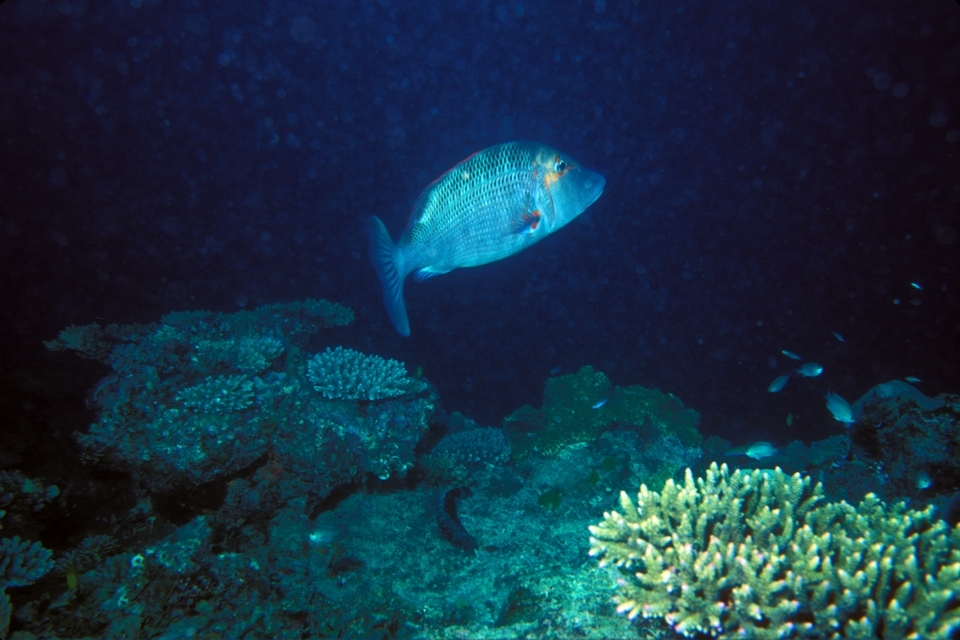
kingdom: Animalia
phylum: Chordata
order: Perciformes
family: Lethrinidae
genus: Lethrinus
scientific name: Lethrinus miniatus
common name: Trumpet emperor
